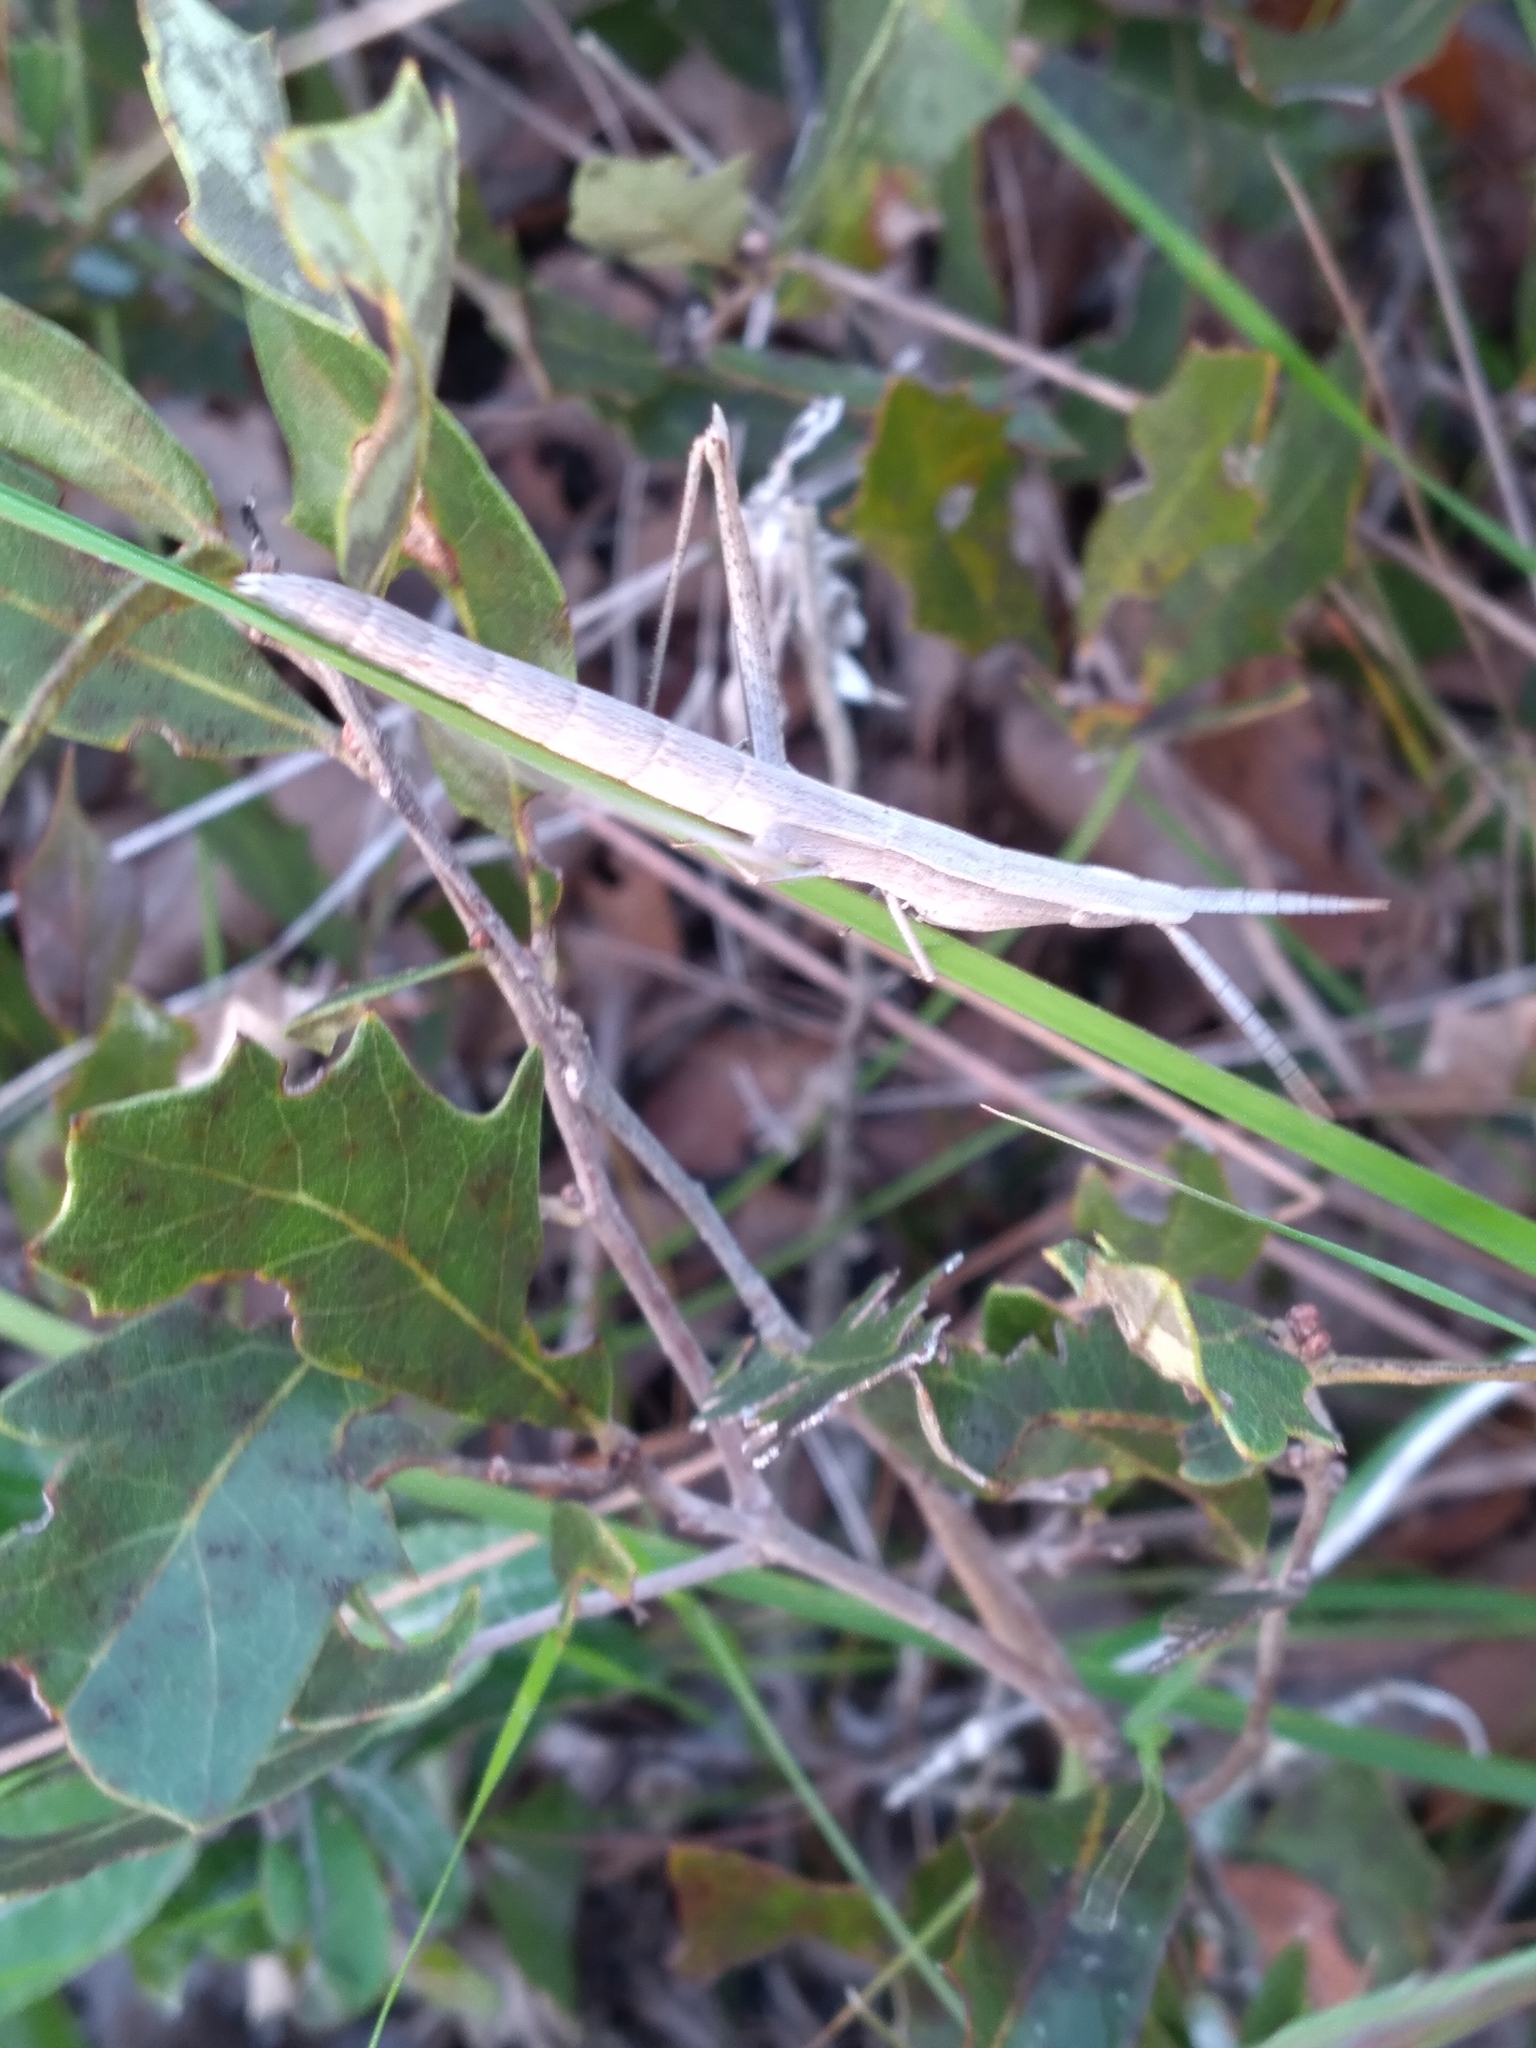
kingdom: Animalia
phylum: Arthropoda
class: Insecta
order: Orthoptera
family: Acrididae
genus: Achurum
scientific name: Achurum carinatum
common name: Long-headed toothpick grasshopper
